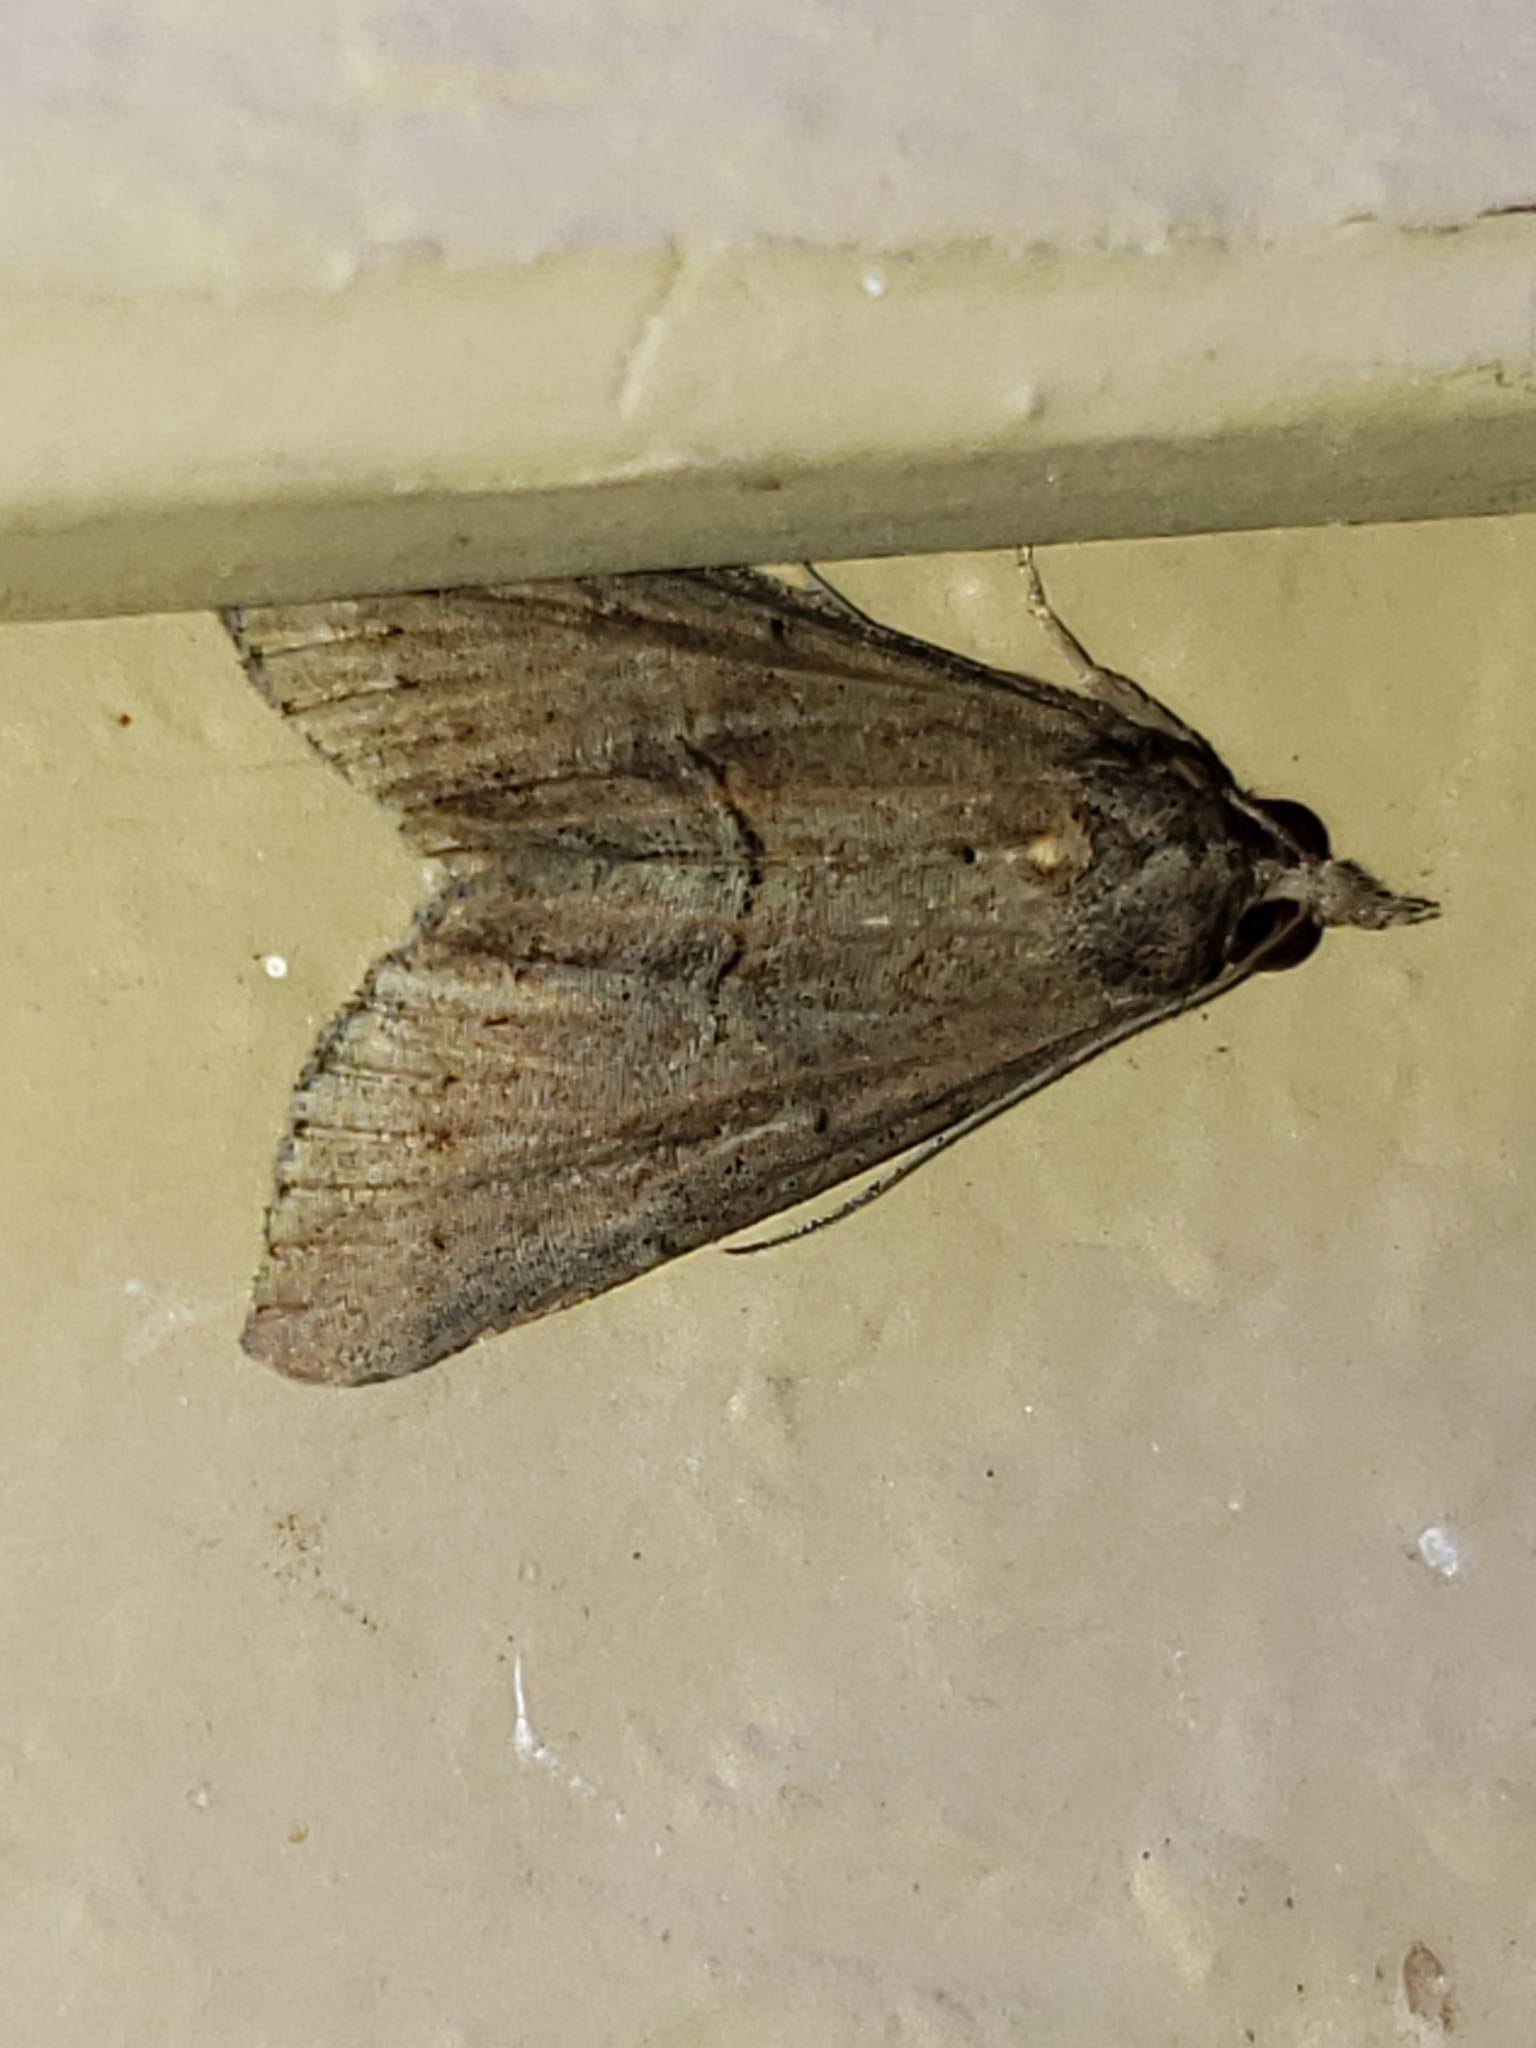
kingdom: Animalia
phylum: Arthropoda
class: Insecta
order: Lepidoptera
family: Erebidae
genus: Hypena
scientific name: Hypena scabra
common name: Green cloverworm
